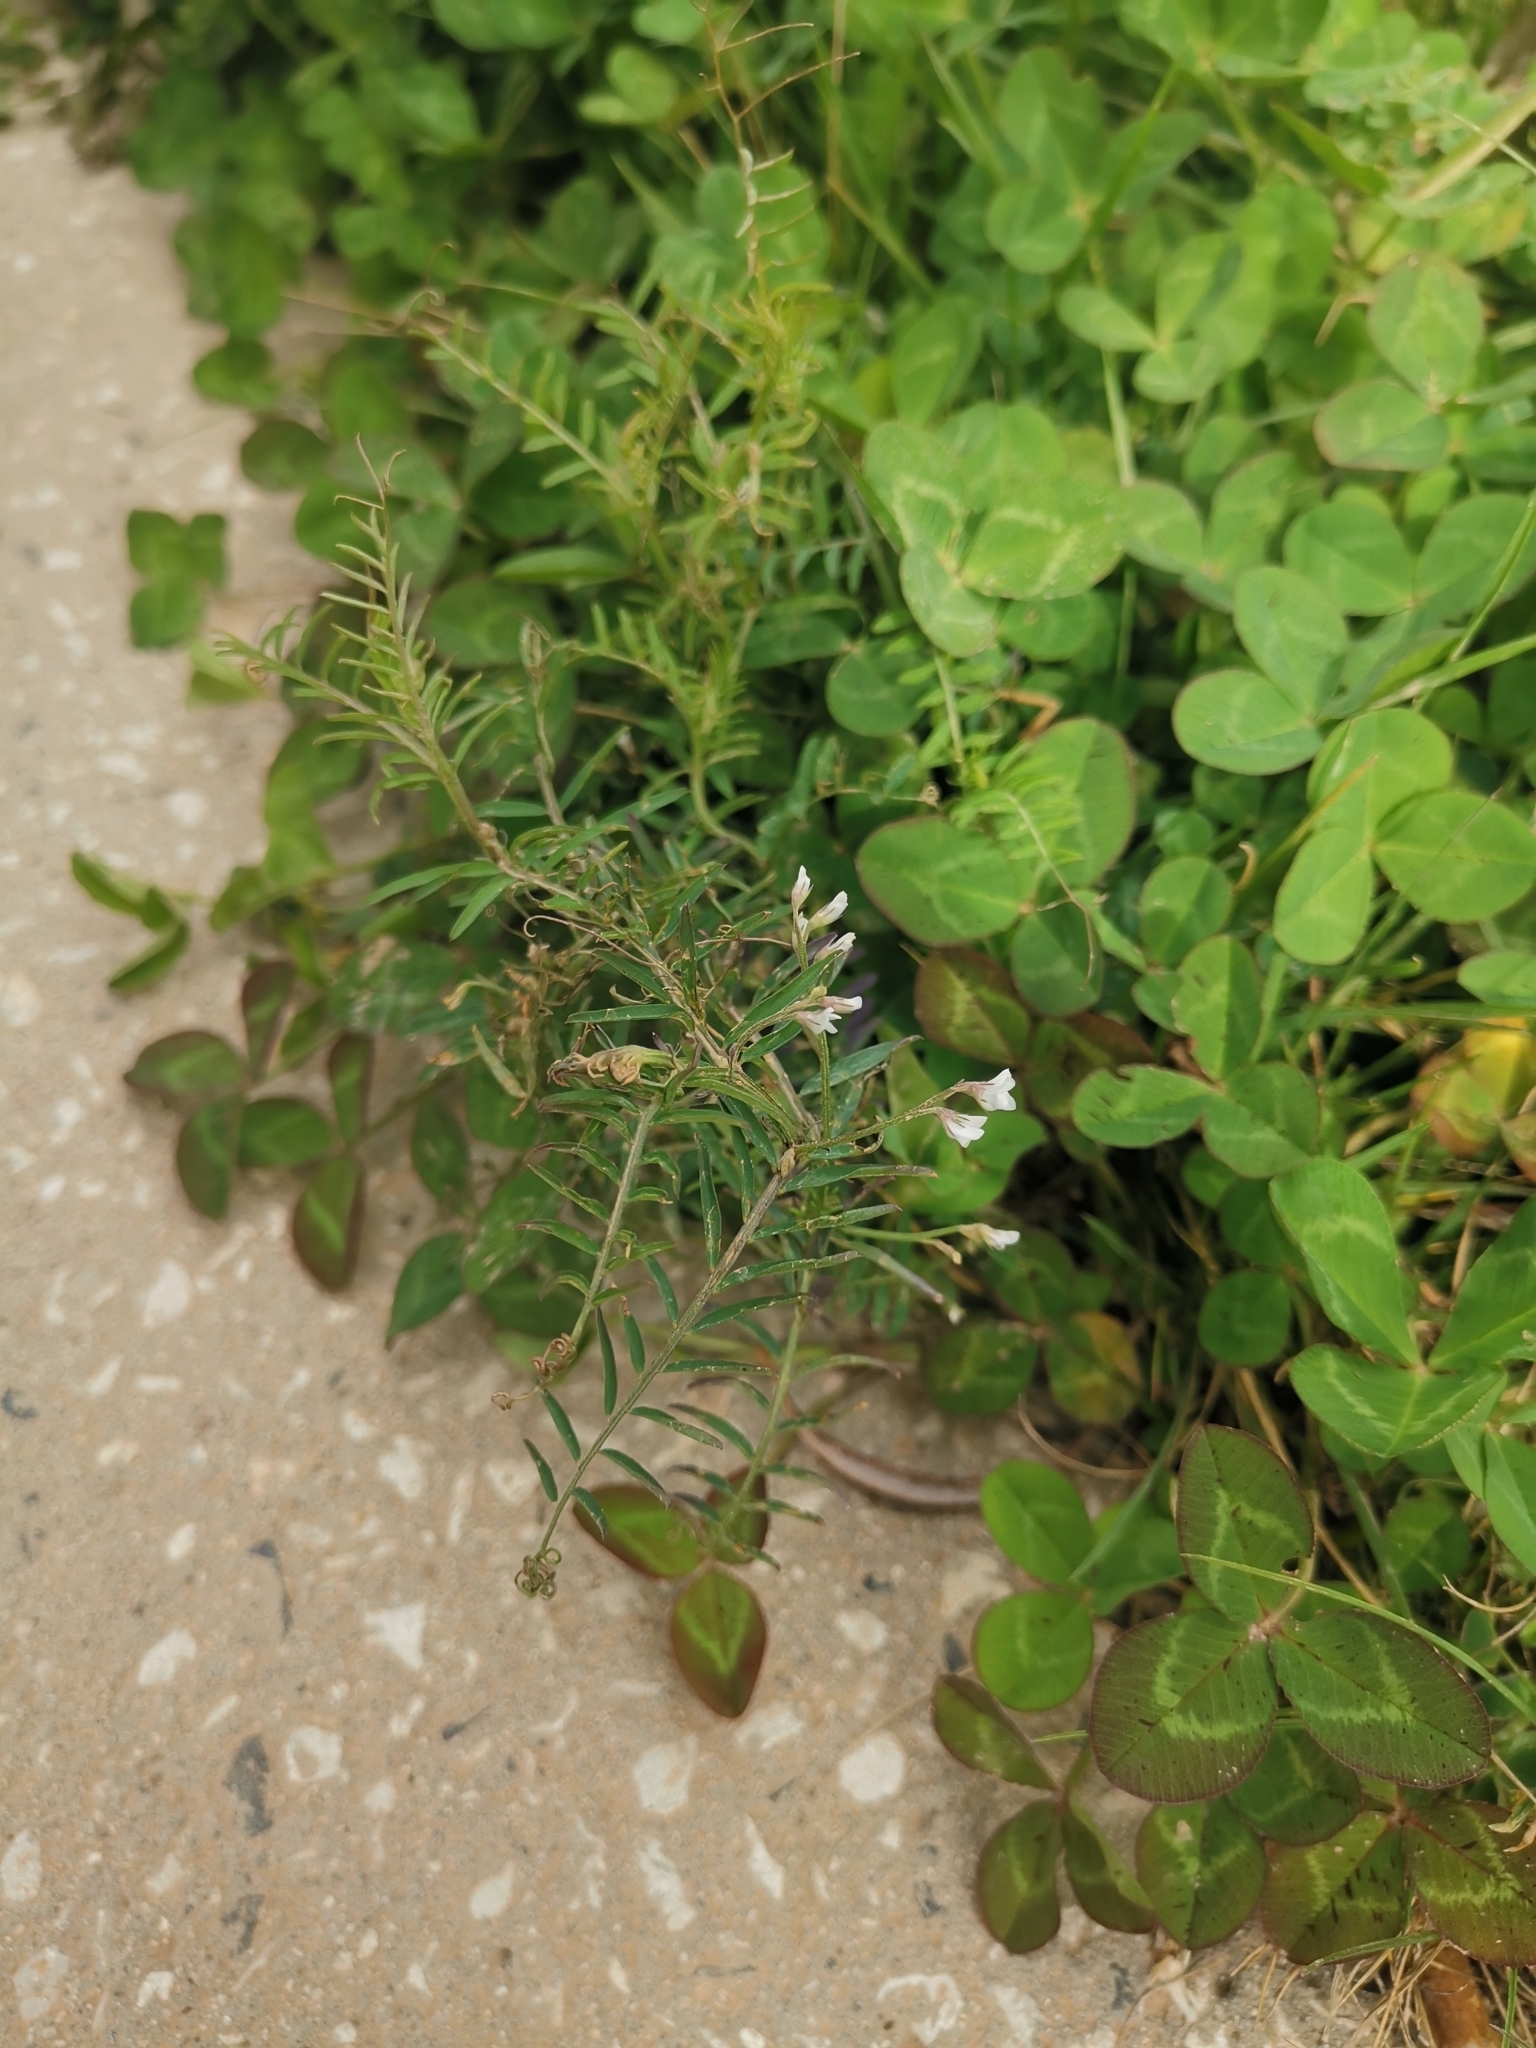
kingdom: Plantae
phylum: Tracheophyta
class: Magnoliopsida
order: Fabales
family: Fabaceae
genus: Vicia
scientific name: Vicia hirsuta
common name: Tiny vetch
